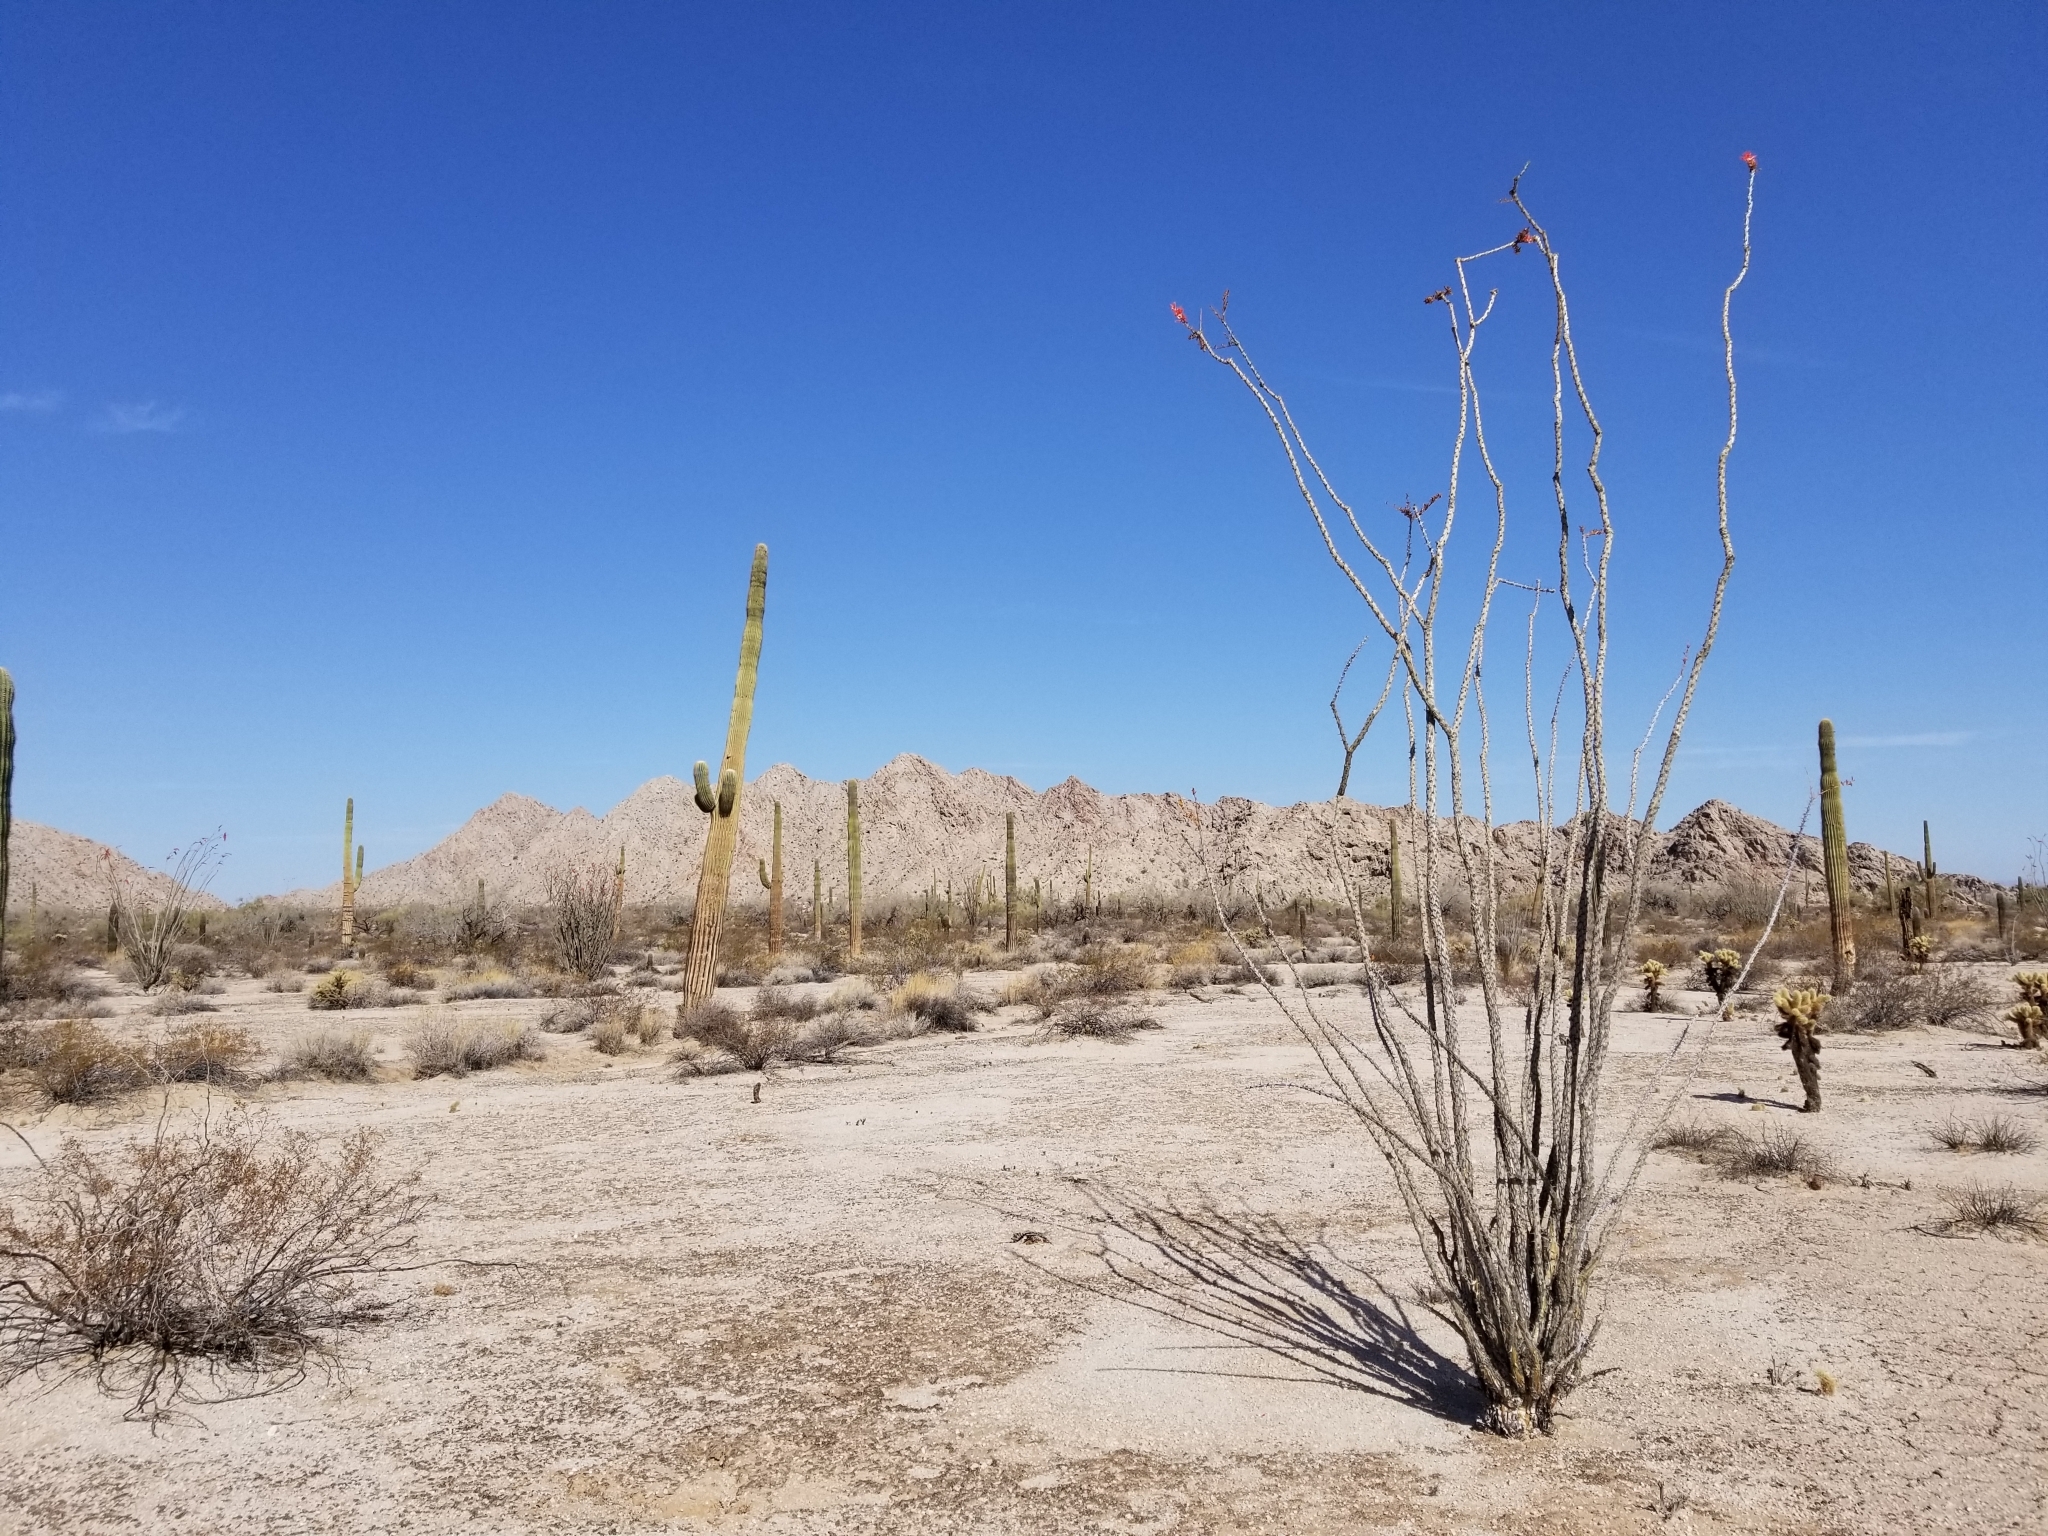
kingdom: Plantae
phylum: Tracheophyta
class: Magnoliopsida
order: Ericales
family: Fouquieriaceae
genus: Fouquieria
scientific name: Fouquieria splendens
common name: Vine-cactus
